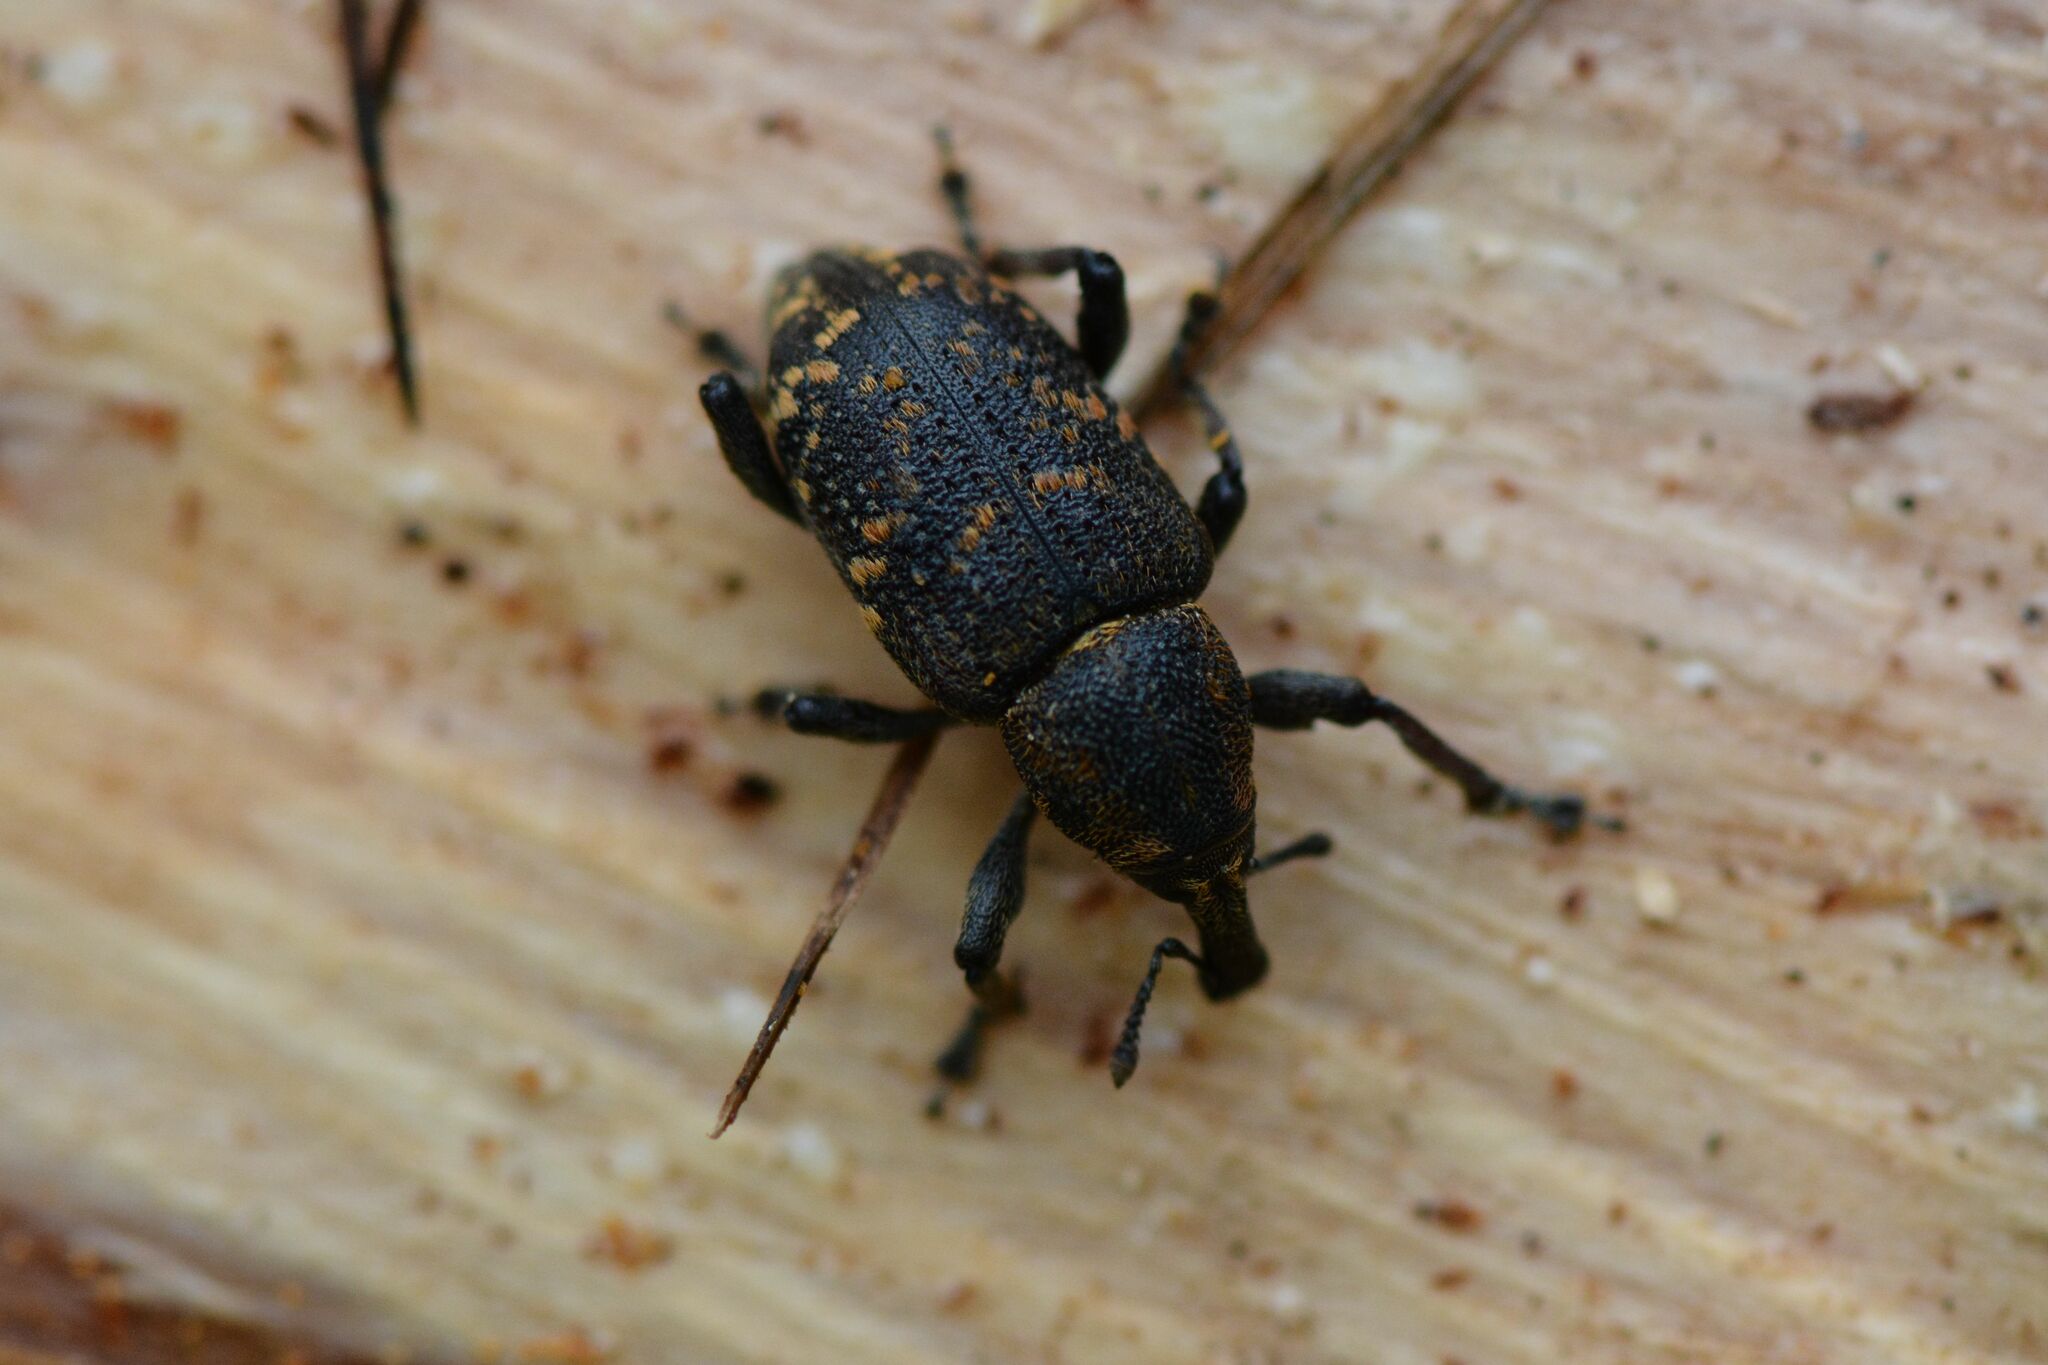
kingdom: Animalia
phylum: Arthropoda
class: Insecta
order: Coleoptera
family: Curculionidae
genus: Hylobius
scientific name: Hylobius abietis
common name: Large pine weevil
